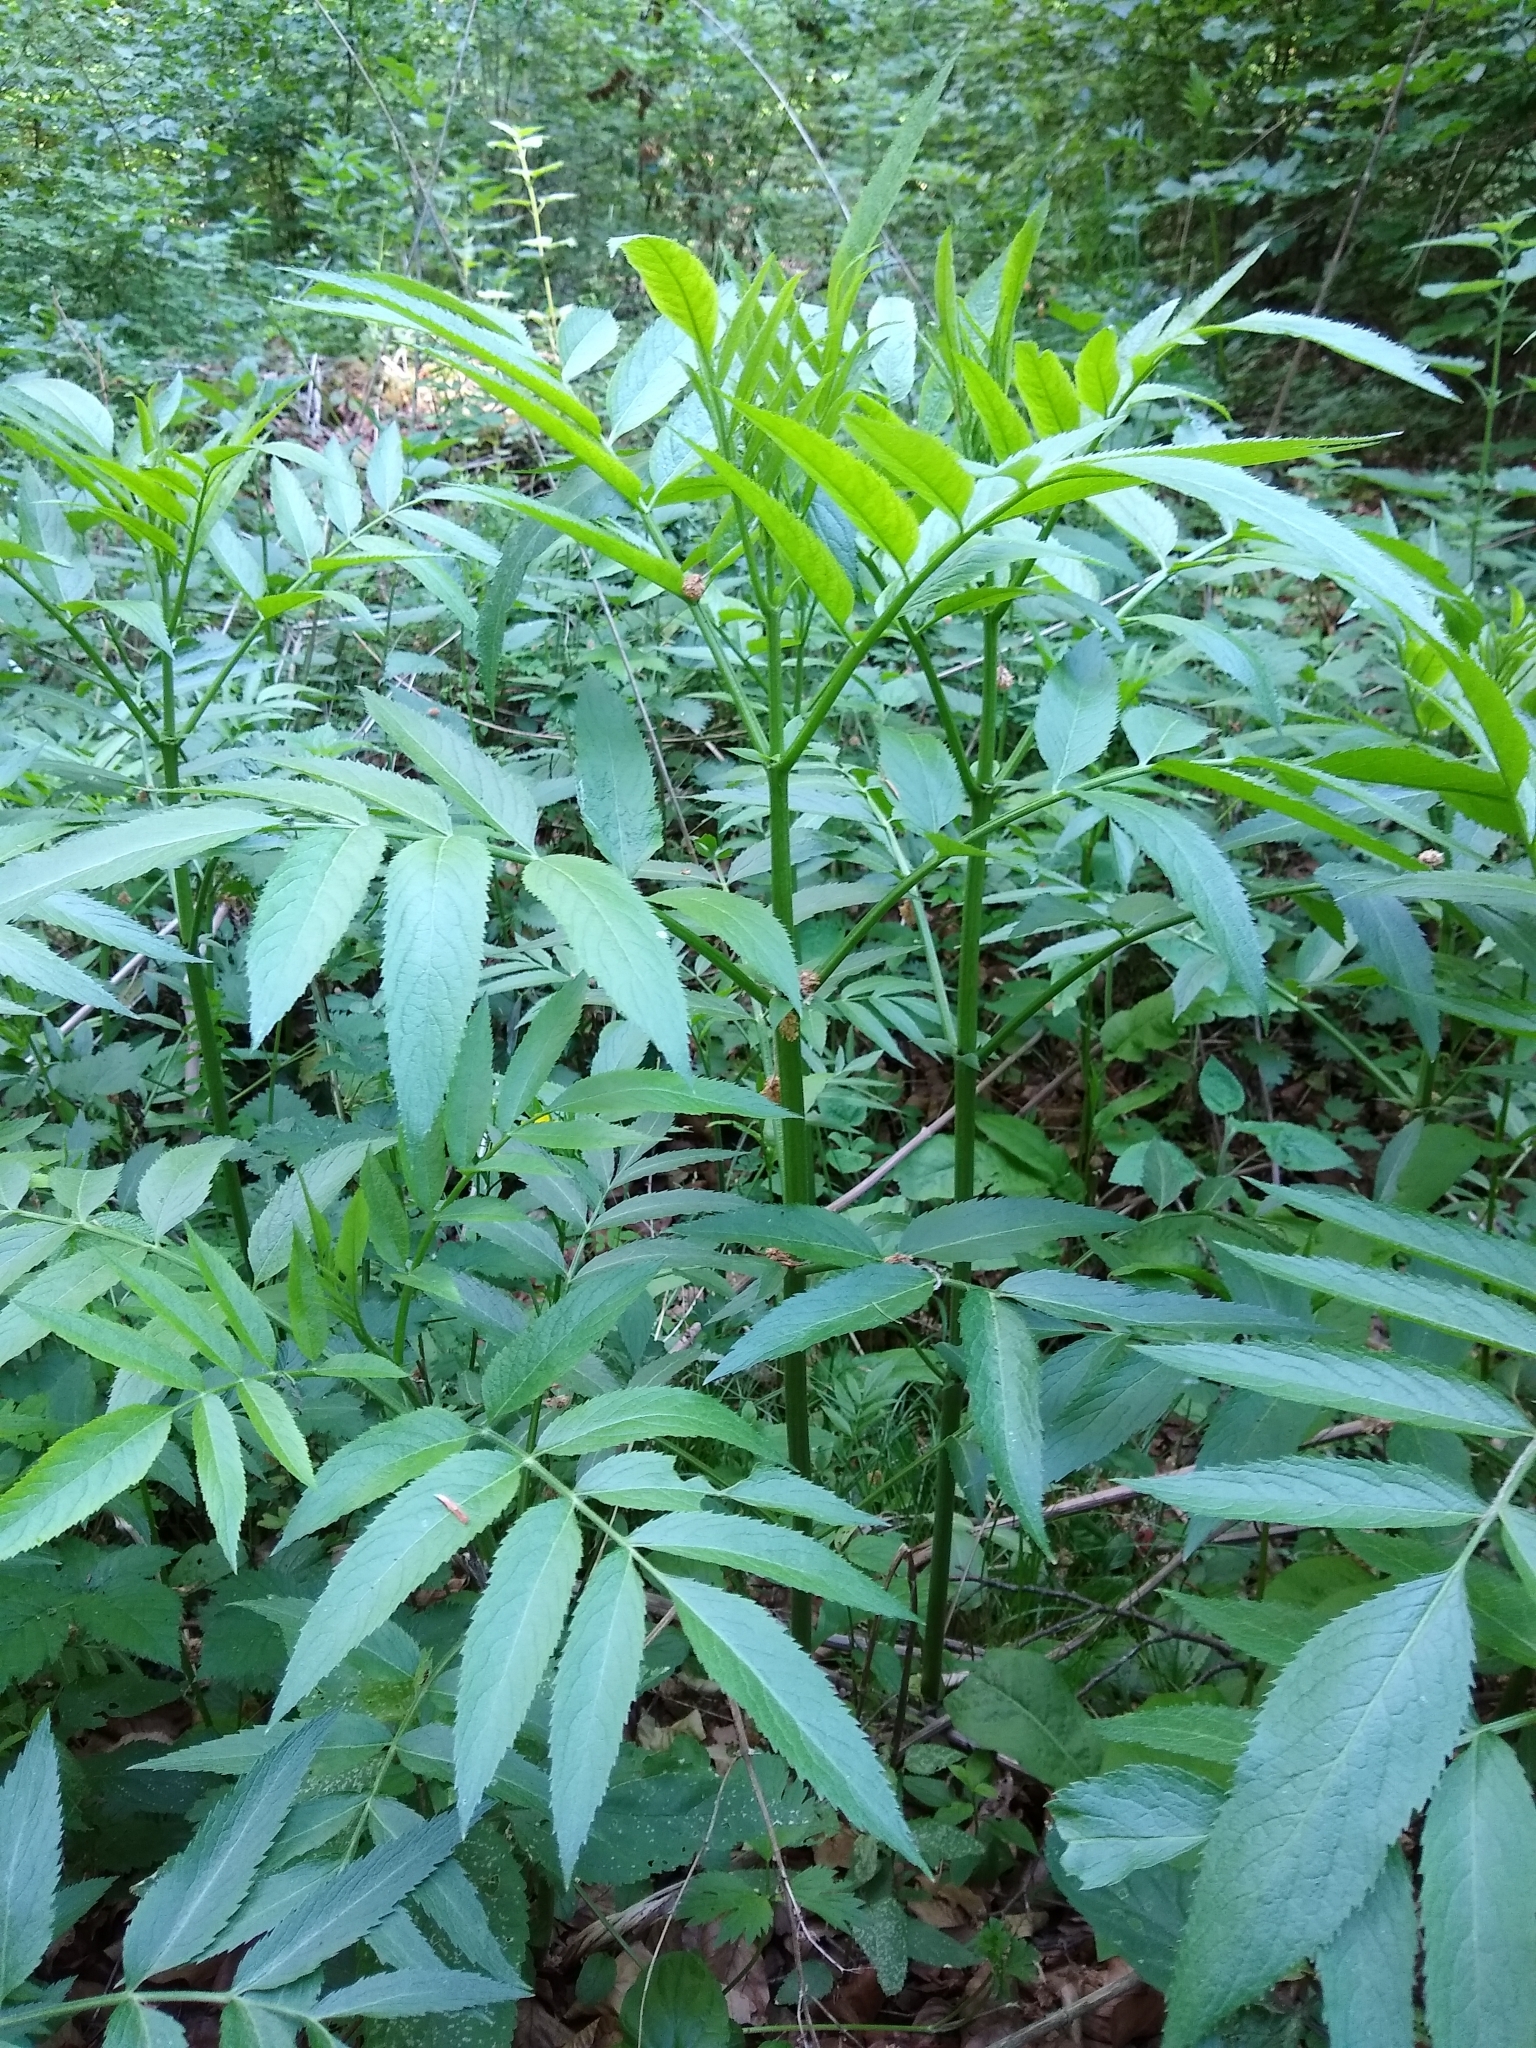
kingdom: Plantae
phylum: Tracheophyta
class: Magnoliopsida
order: Dipsacales
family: Viburnaceae
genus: Sambucus
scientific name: Sambucus ebulus
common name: Dwarf elder
